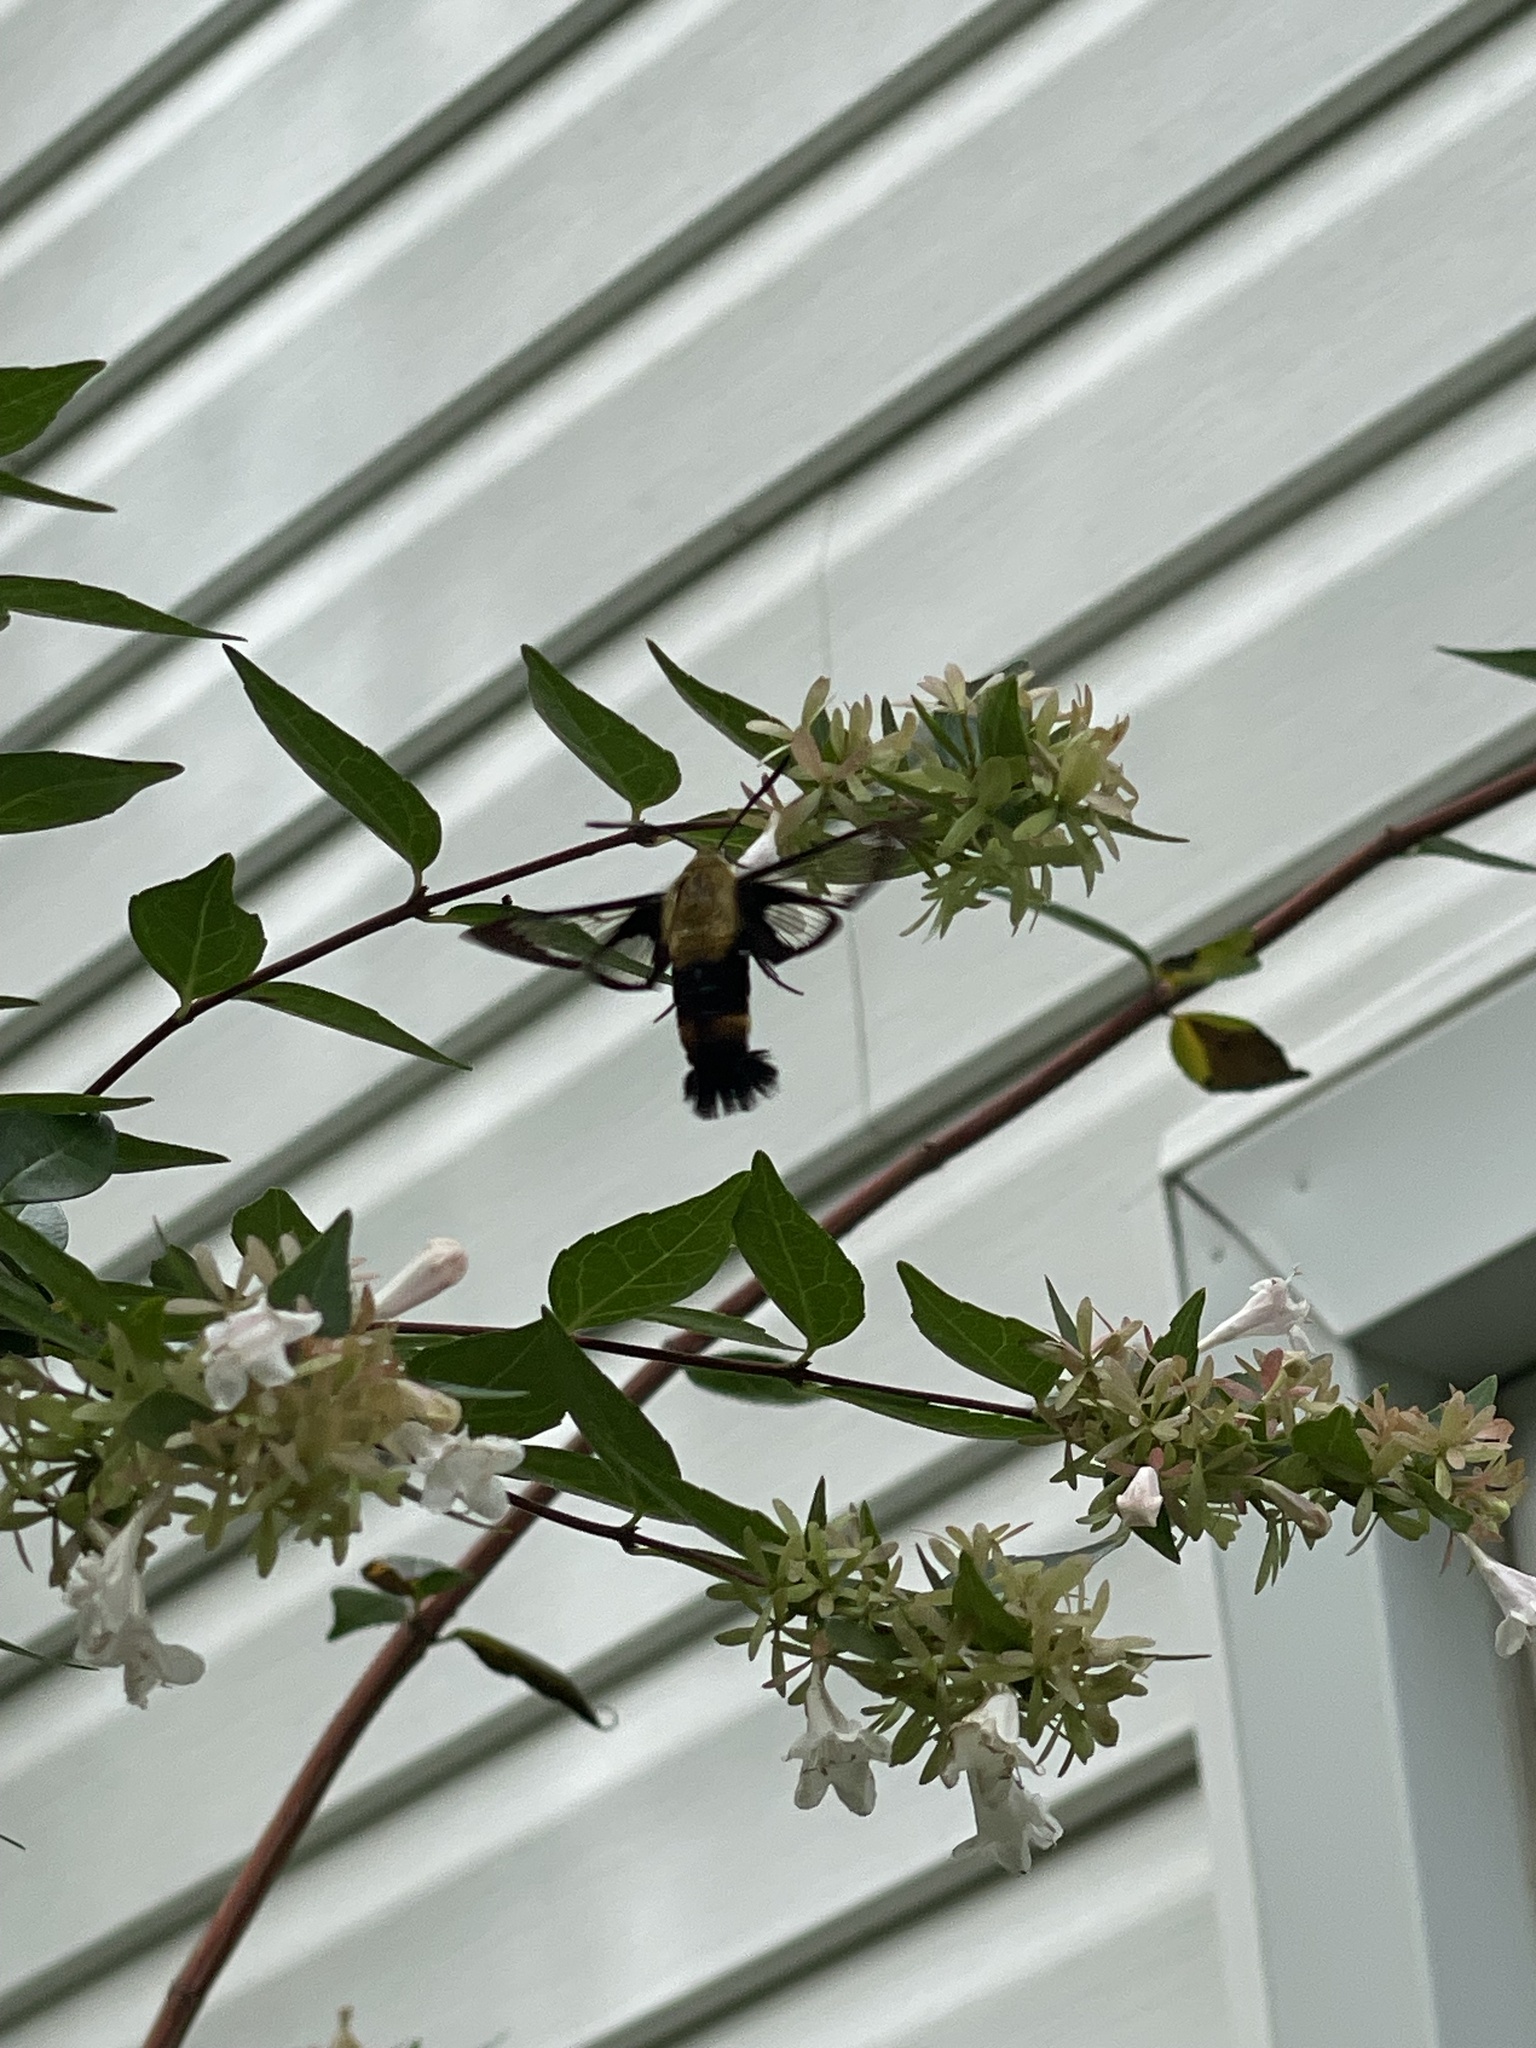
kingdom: Animalia
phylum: Arthropoda
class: Insecta
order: Lepidoptera
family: Sphingidae
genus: Hemaris
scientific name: Hemaris diffinis
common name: Bumblebee moth
